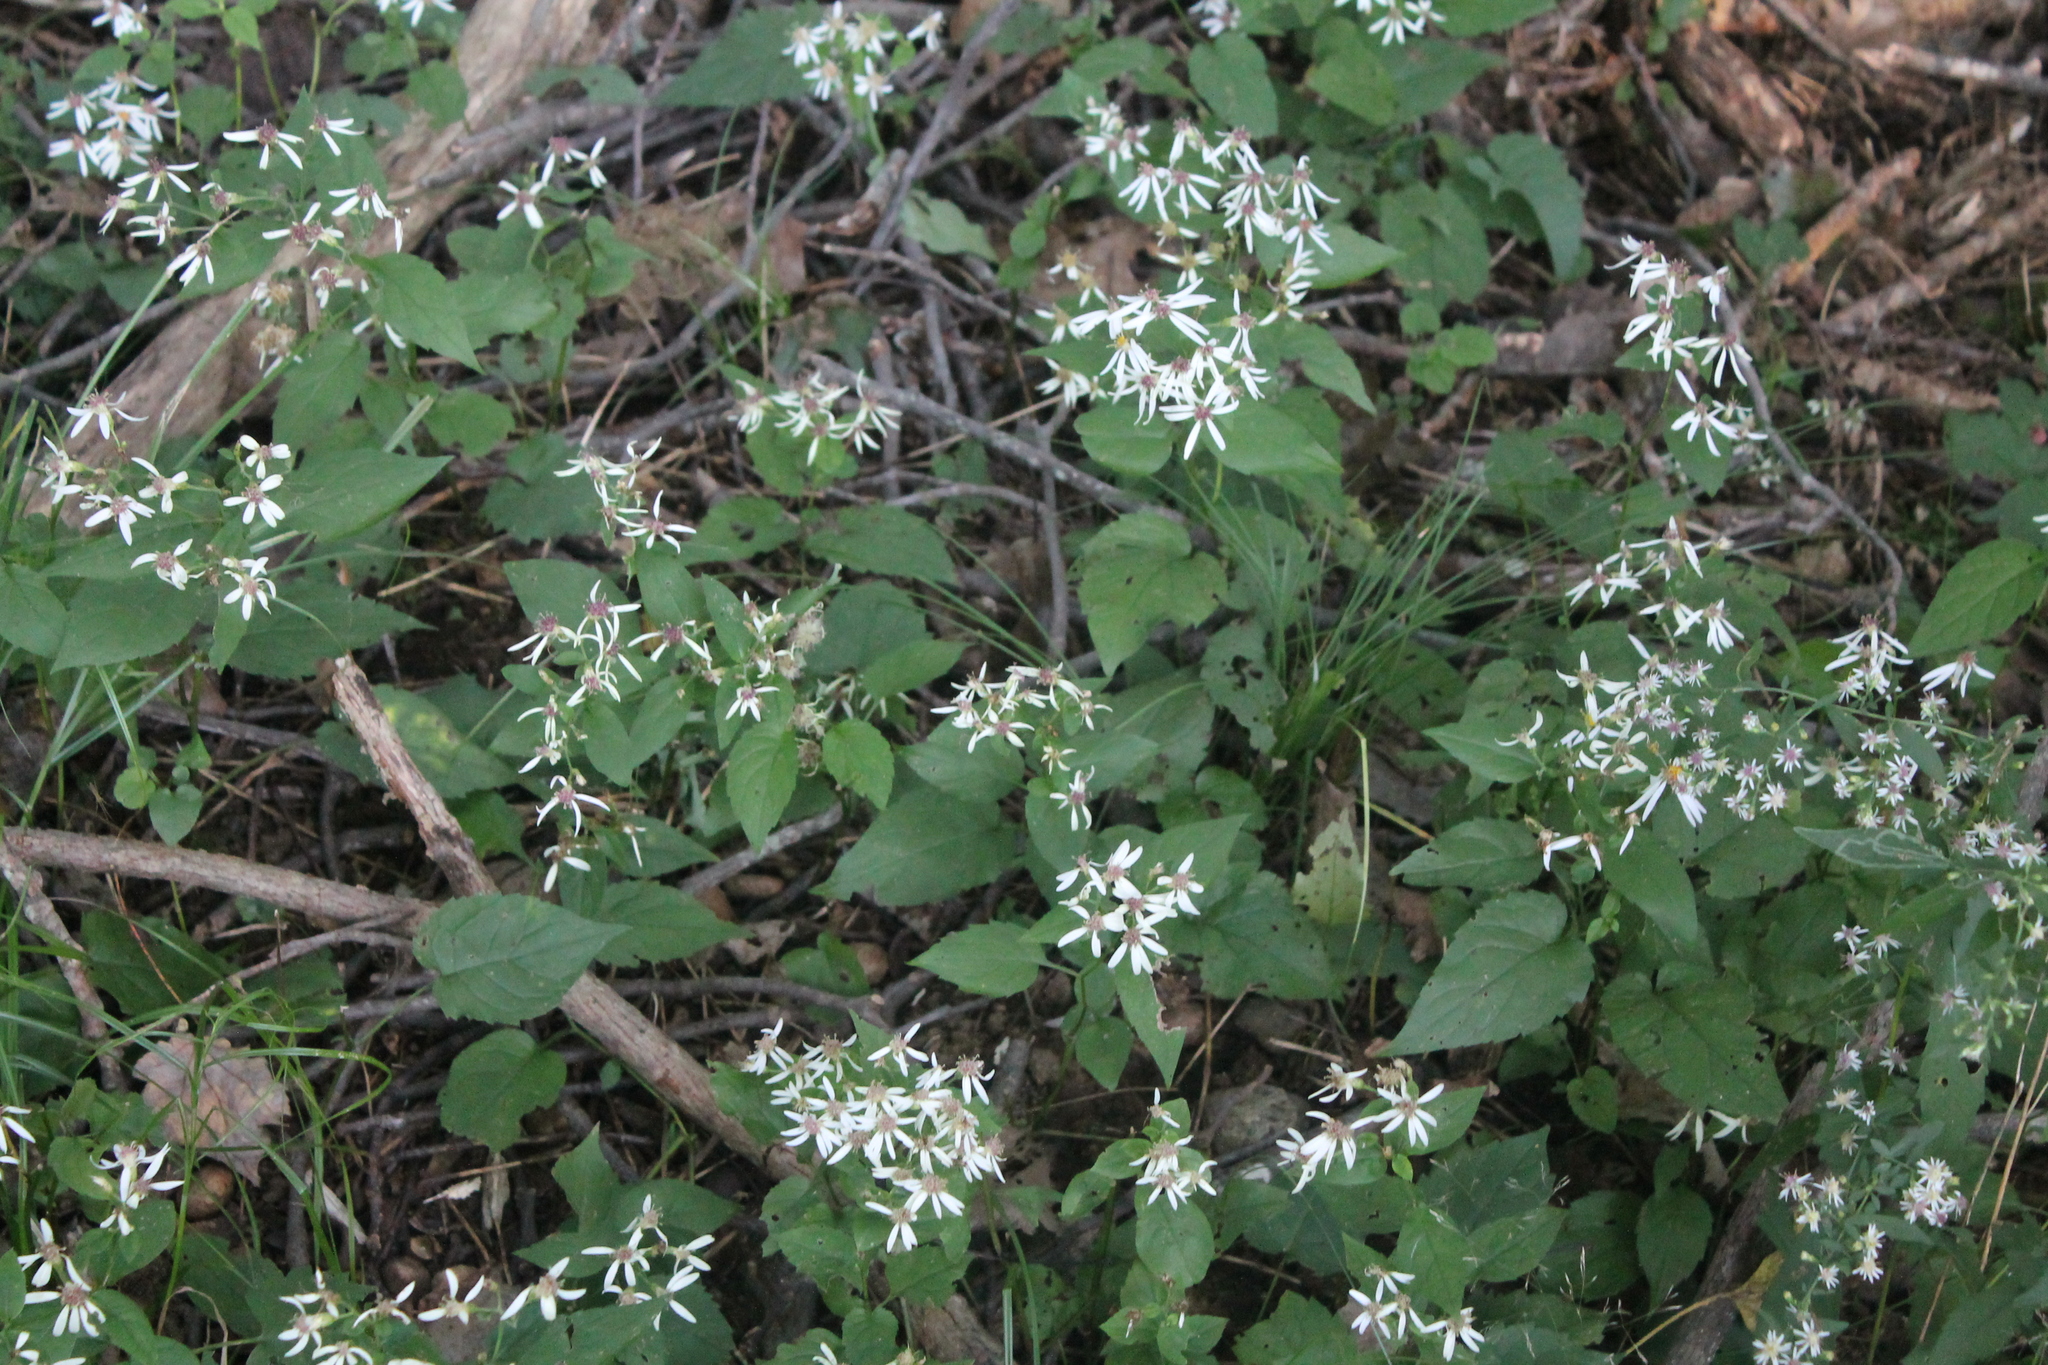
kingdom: Plantae
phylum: Tracheophyta
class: Magnoliopsida
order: Asterales
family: Asteraceae
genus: Eurybia
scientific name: Eurybia divaricata
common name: White wood aster
